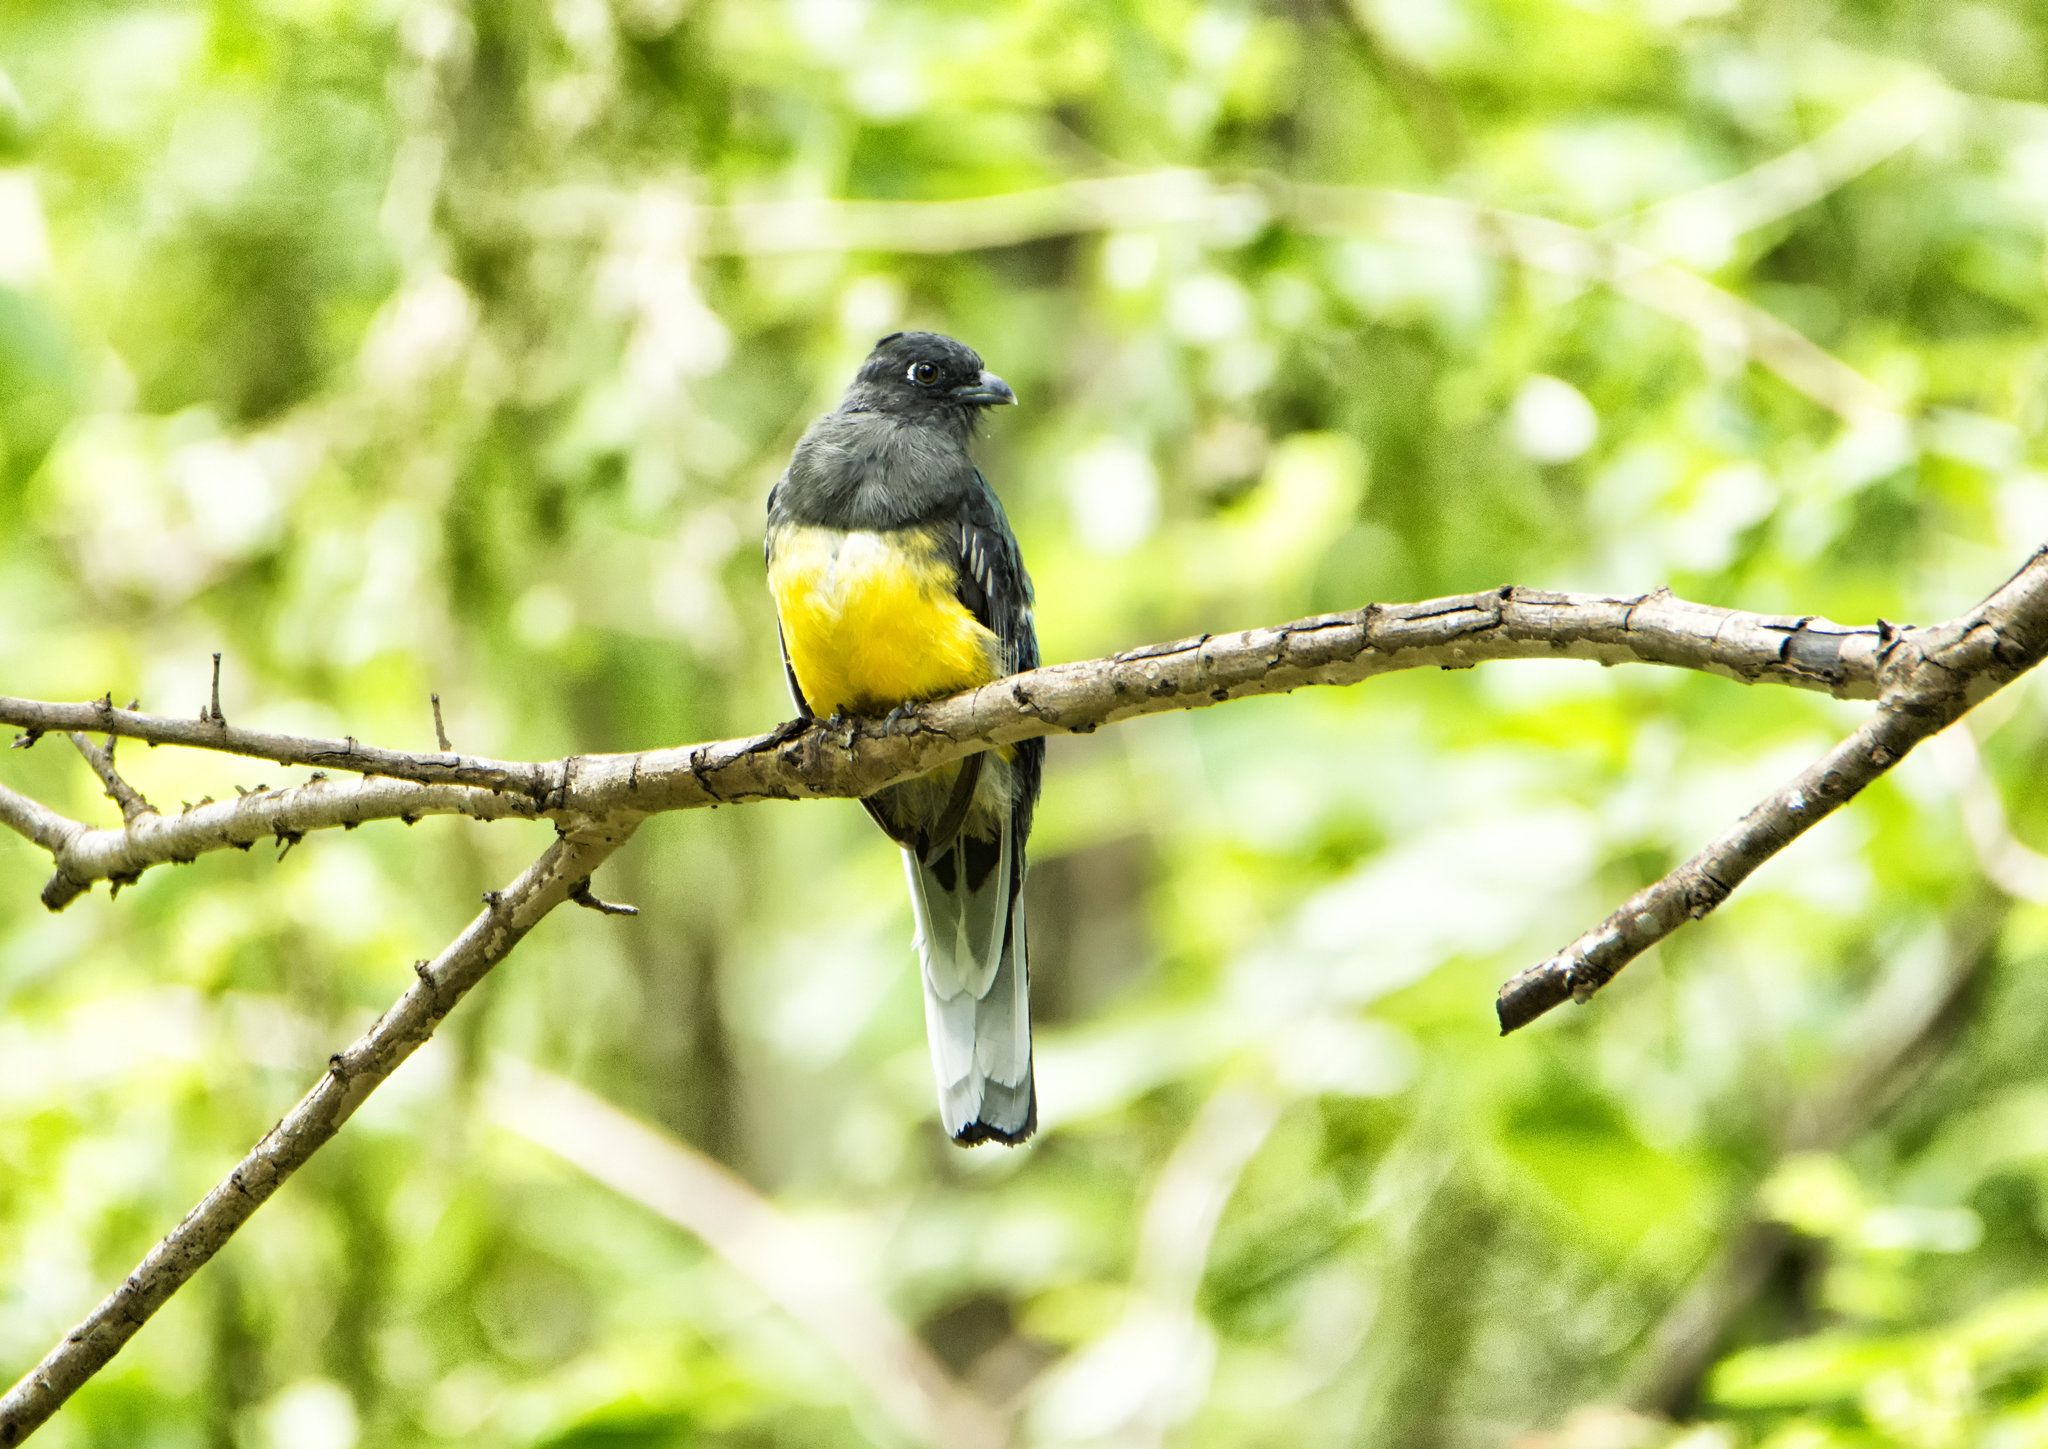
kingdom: Animalia
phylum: Chordata
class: Aves
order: Trogoniformes
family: Trogonidae
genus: Trogon
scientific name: Trogon citreolus
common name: Citreoline trogon
